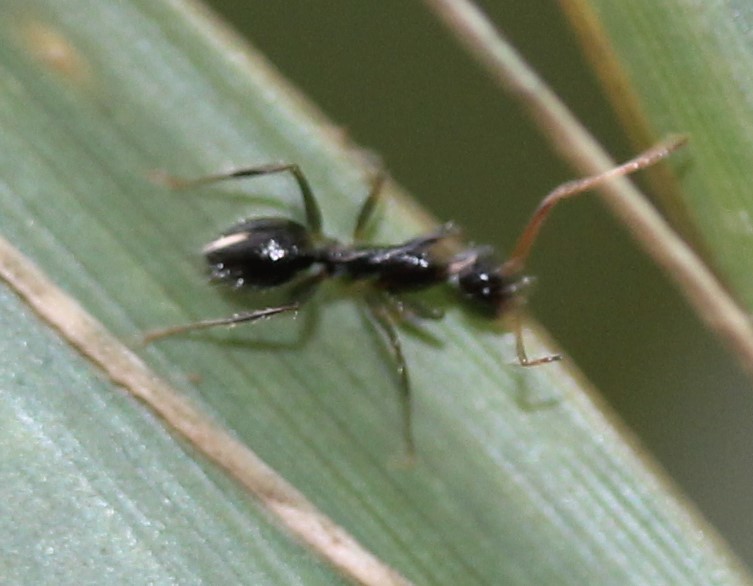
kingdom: Animalia
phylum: Arthropoda
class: Insecta
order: Hymenoptera
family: Formicidae
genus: Paratrechina
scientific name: Paratrechina longicornis
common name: Longhorned crazy ant
